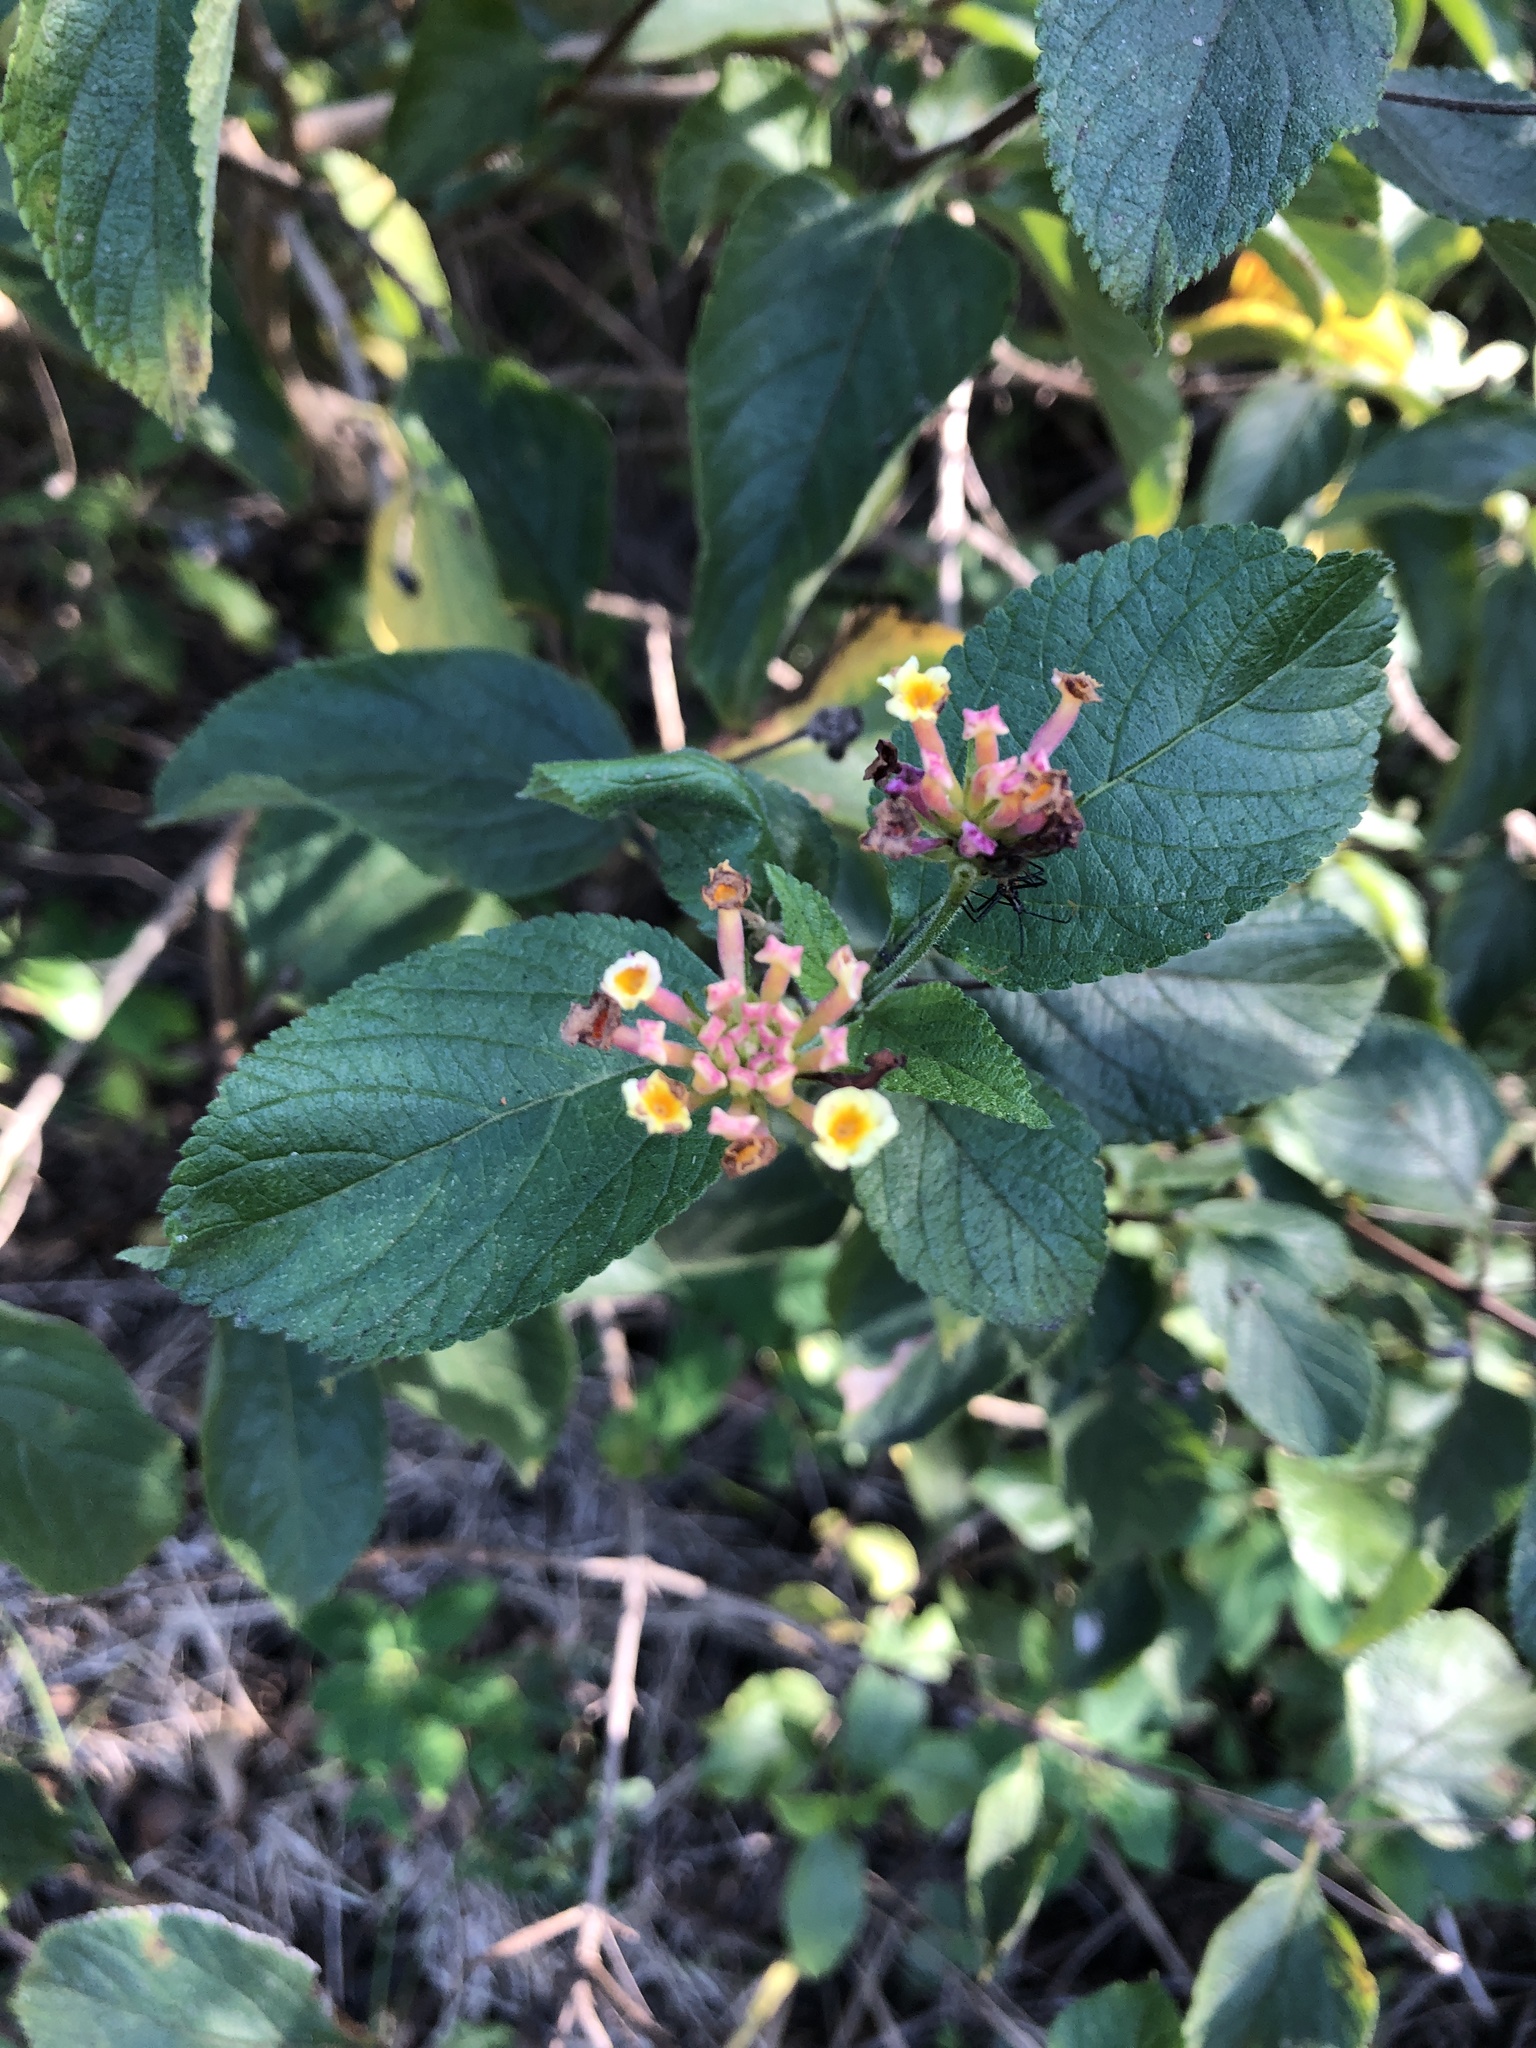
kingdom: Plantae
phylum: Tracheophyta
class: Magnoliopsida
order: Lamiales
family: Verbenaceae
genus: Lantana
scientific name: Lantana camara
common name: Lantana
